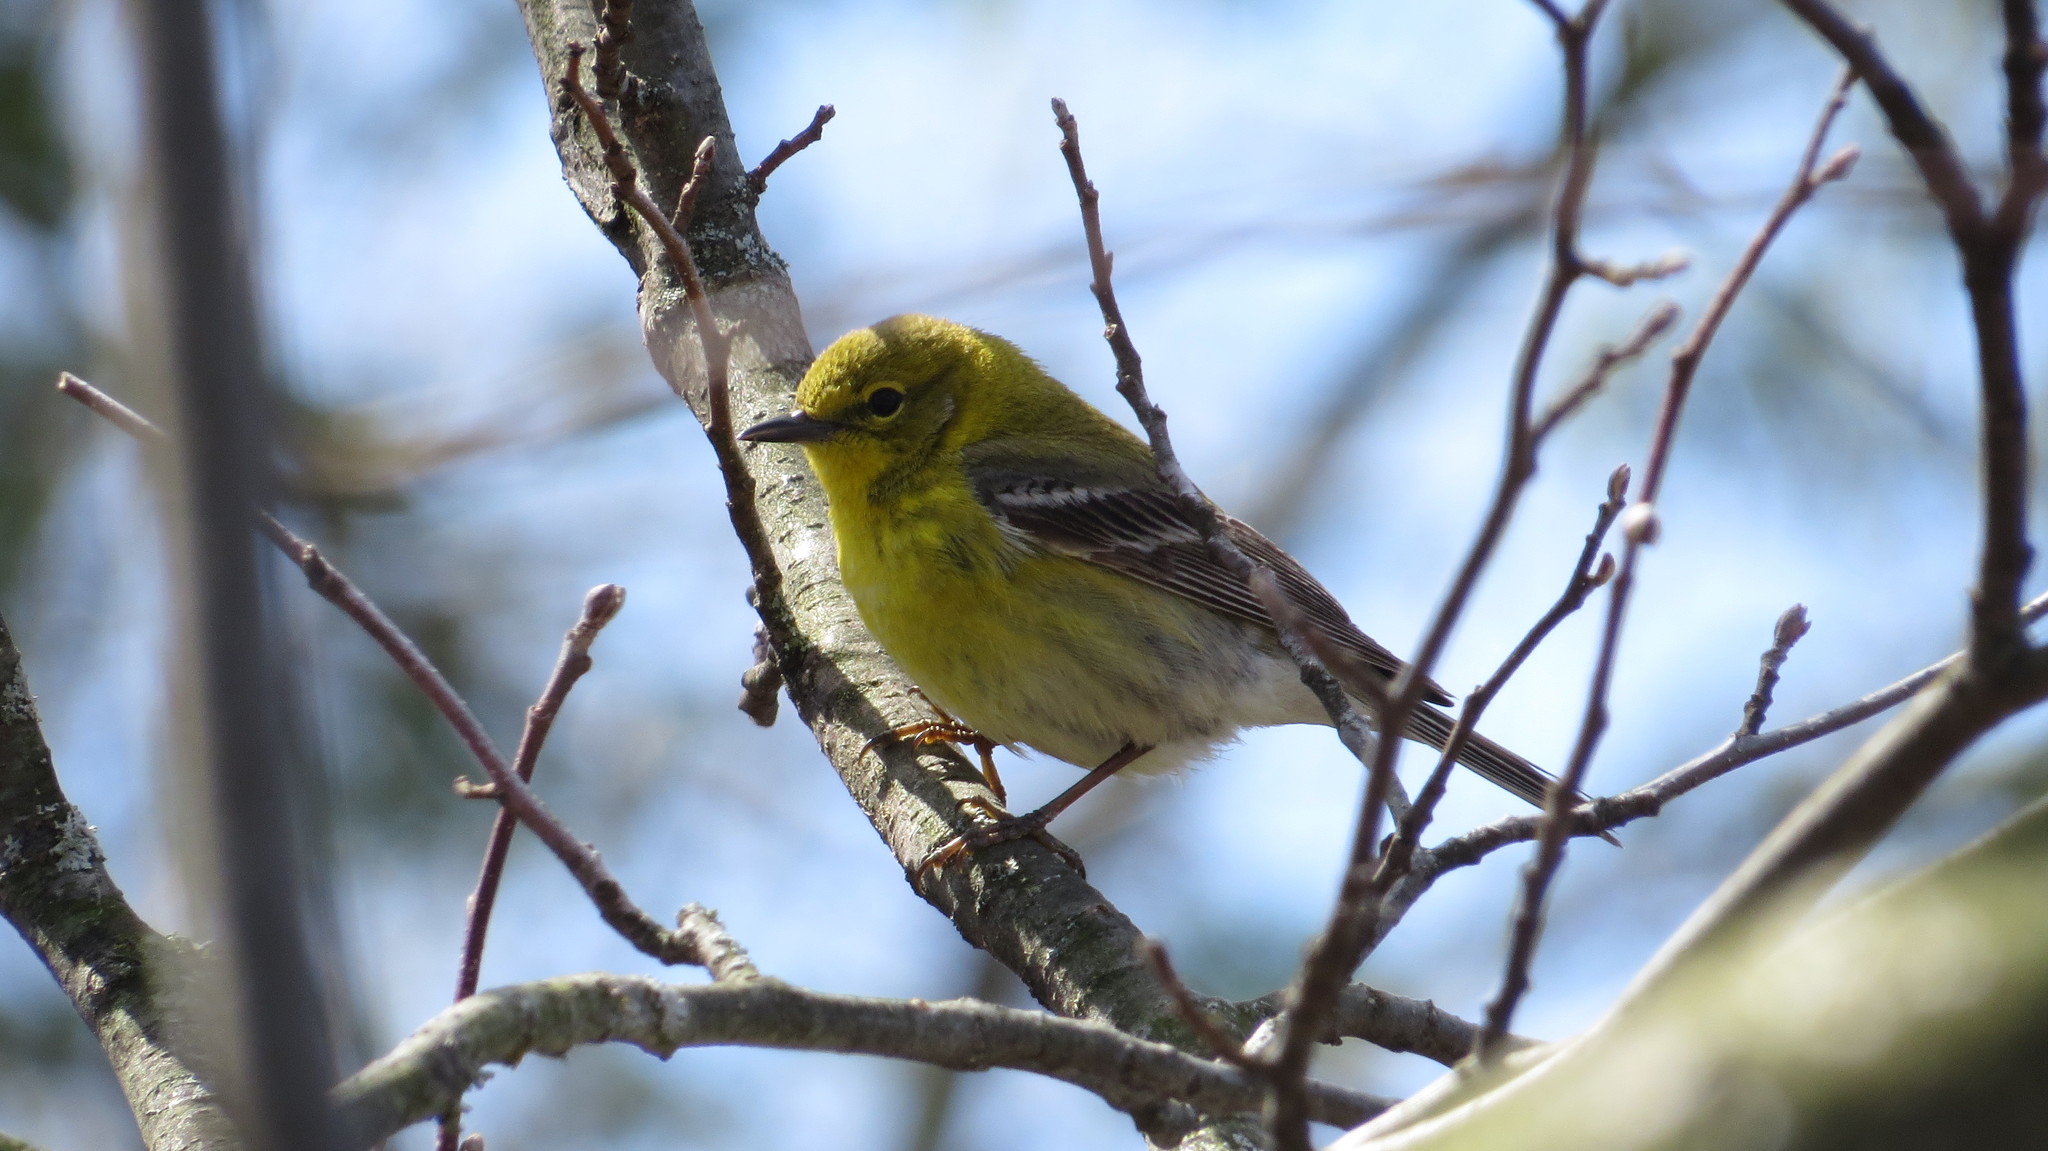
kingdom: Animalia
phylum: Chordata
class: Aves
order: Passeriformes
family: Parulidae
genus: Setophaga
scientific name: Setophaga pinus
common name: Pine warbler
